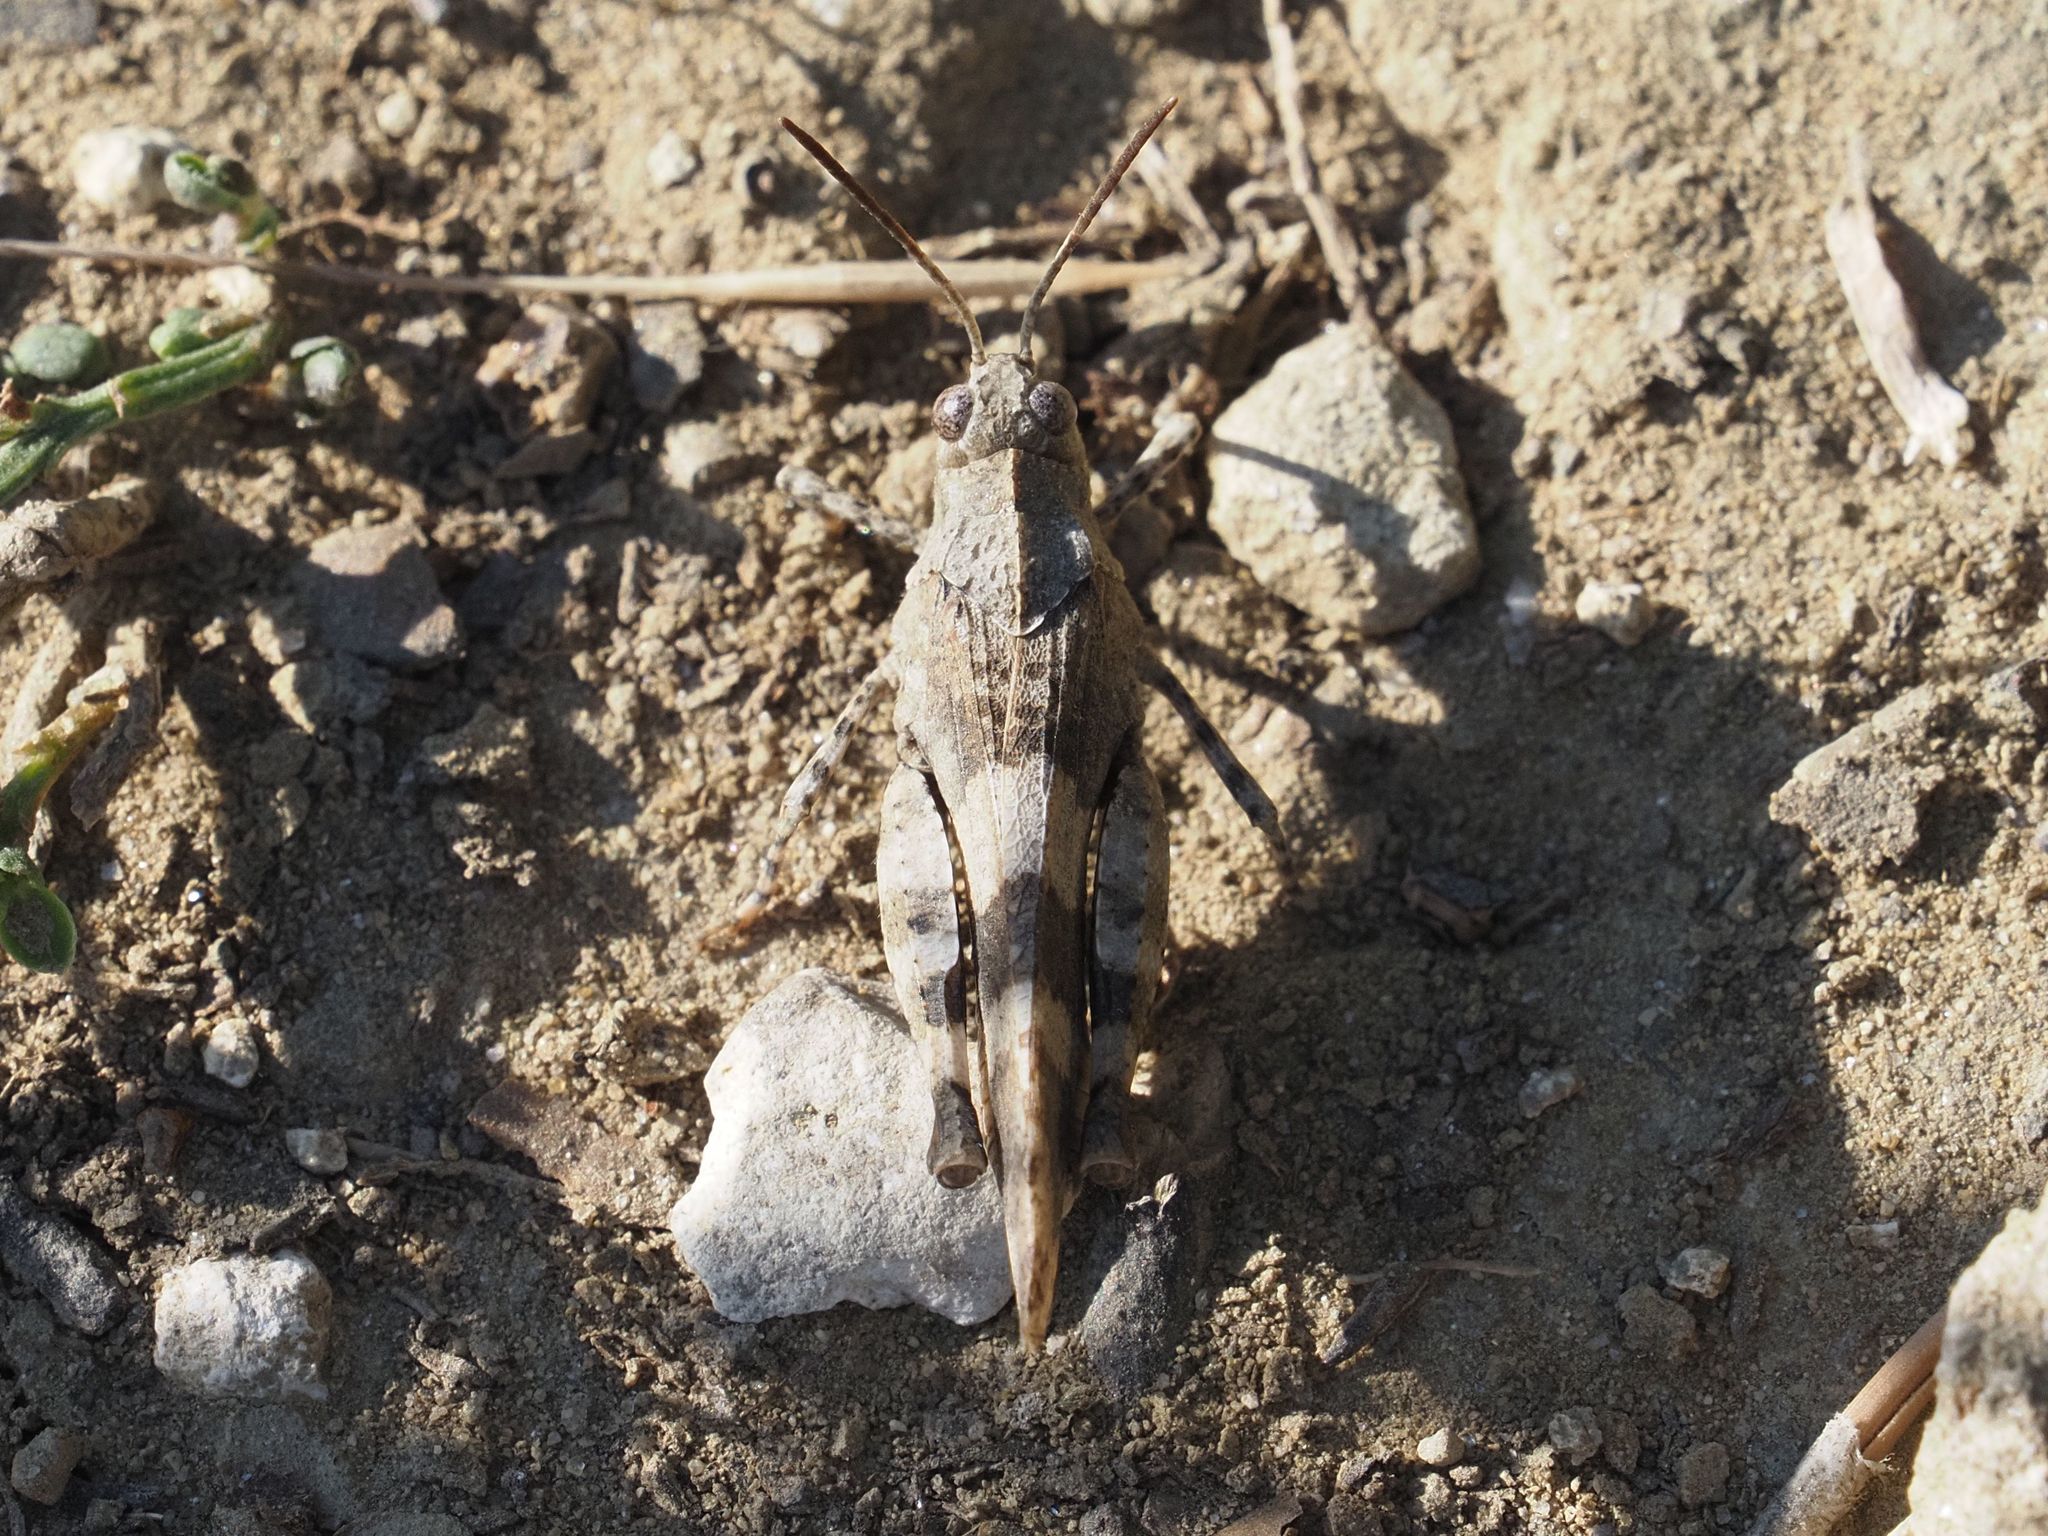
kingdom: Animalia
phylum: Arthropoda
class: Insecta
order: Orthoptera
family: Acrididae
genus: Oedipoda
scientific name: Oedipoda caerulescens
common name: Blue-winged grasshopper
